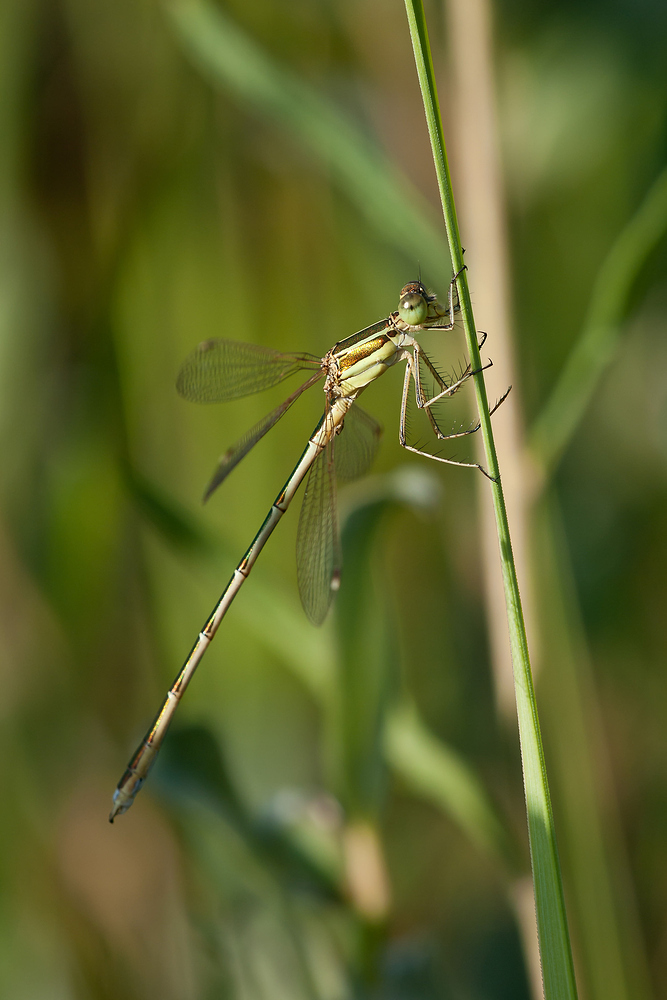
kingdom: Animalia
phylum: Arthropoda
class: Insecta
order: Odonata
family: Lestidae
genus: Lestes
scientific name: Lestes barbarus
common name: Migrant spreadwing
